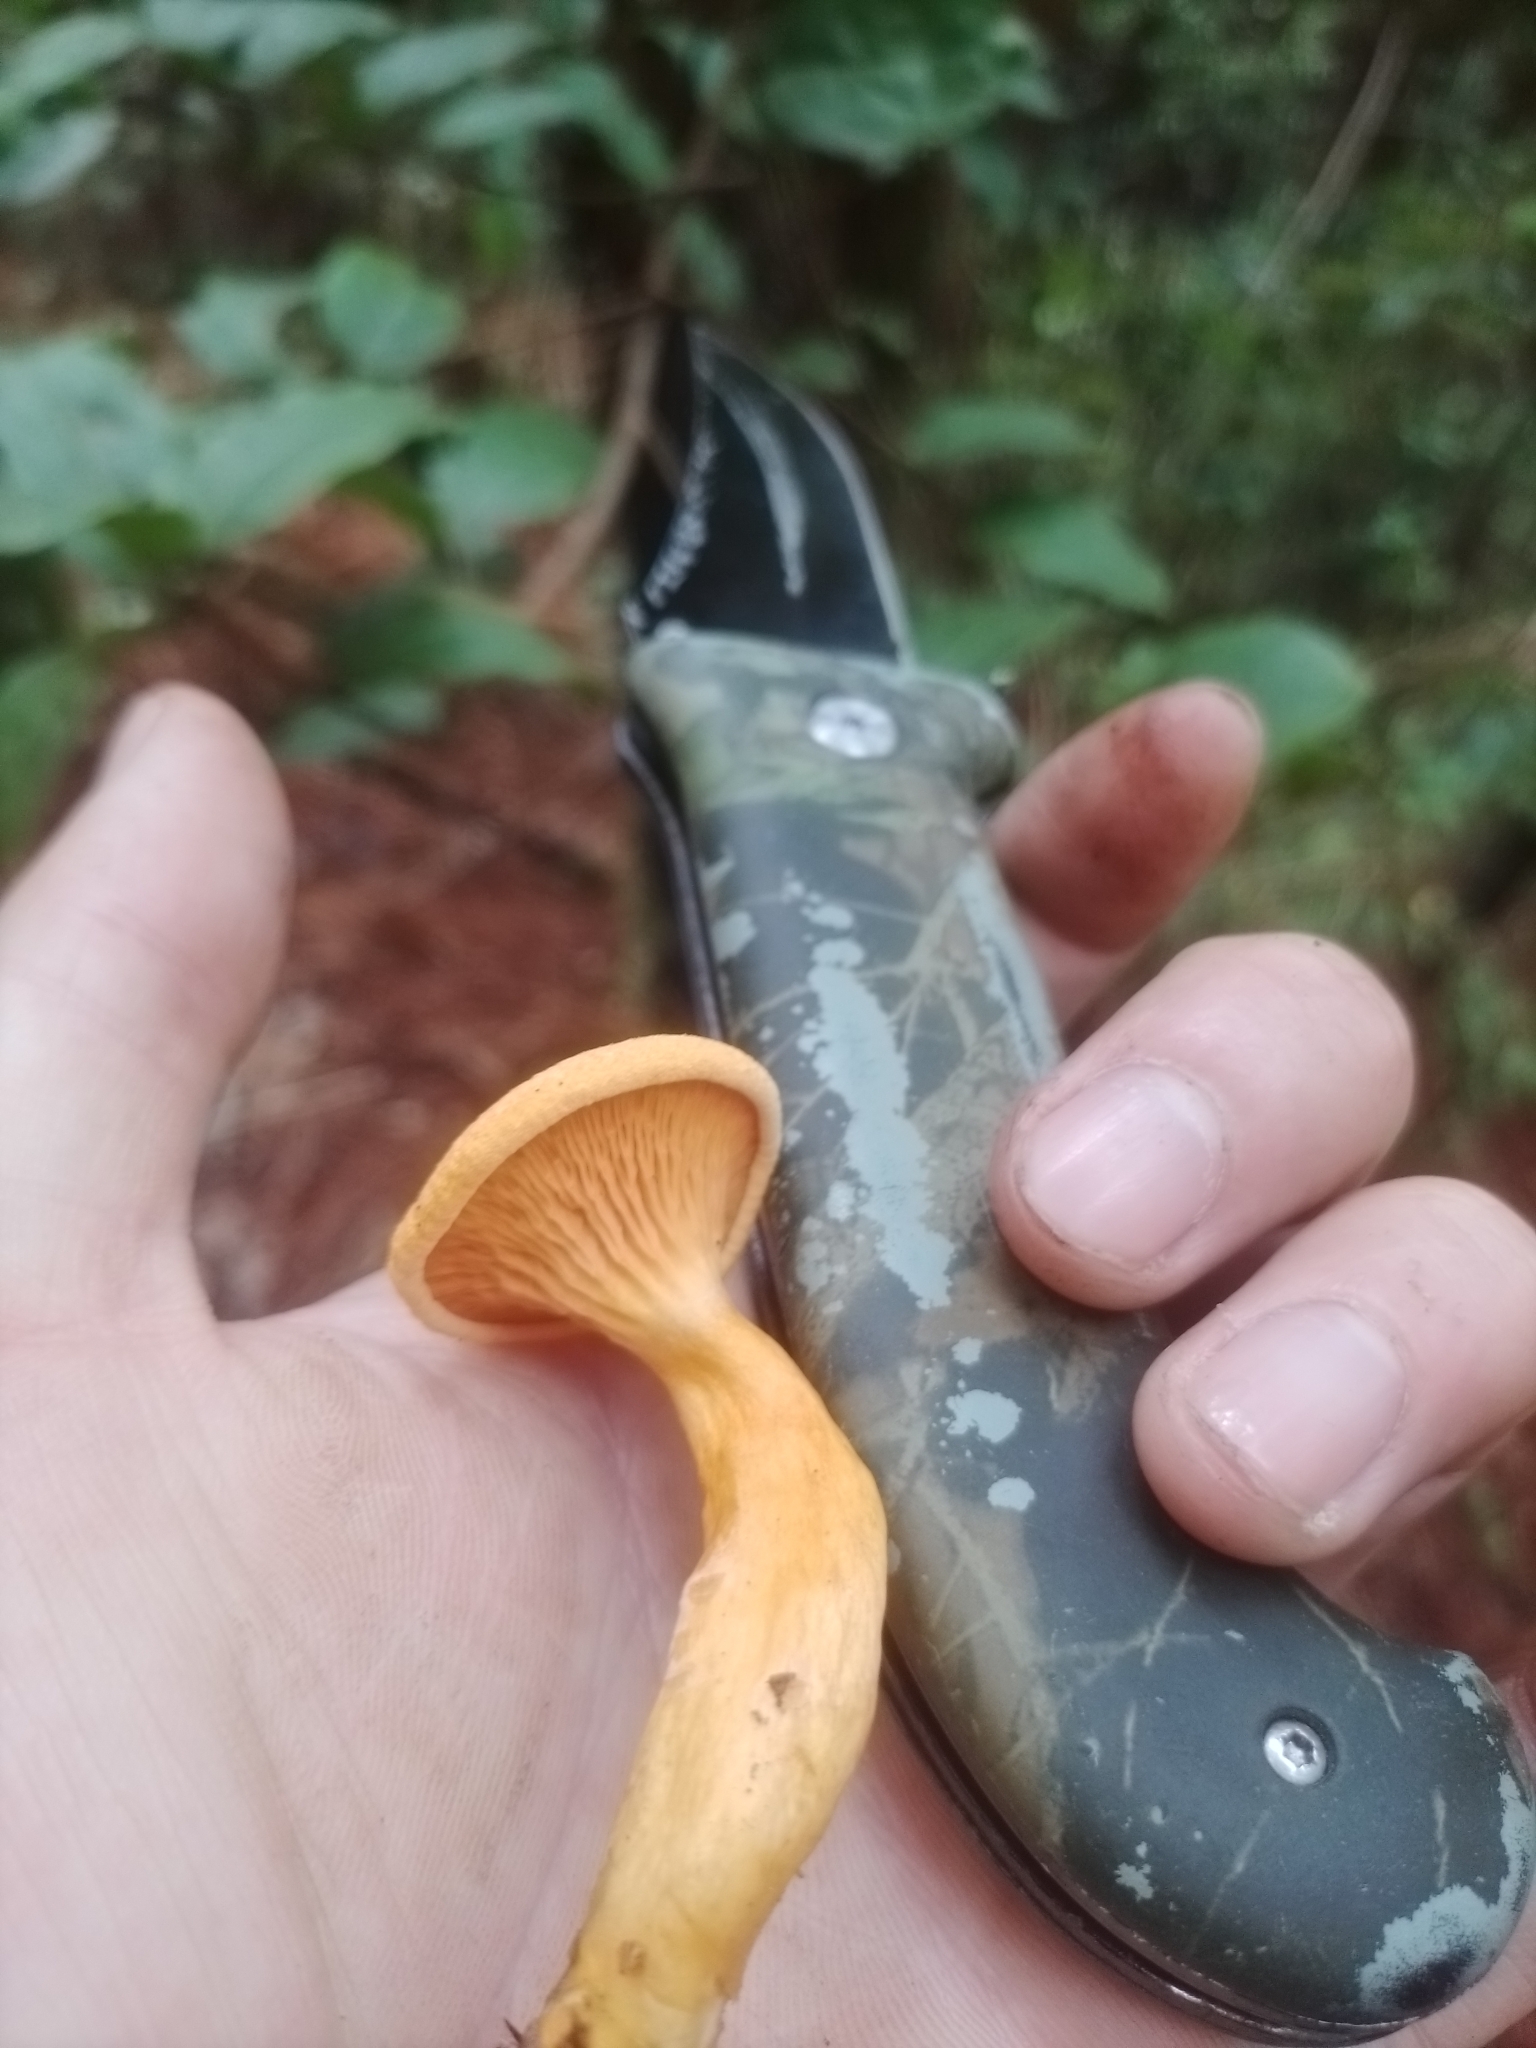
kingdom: Fungi
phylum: Basidiomycota
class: Agaricomycetes
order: Boletales
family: Hygrophoropsidaceae
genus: Hygrophoropsis
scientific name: Hygrophoropsis aurantiaca
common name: False chanterelle
